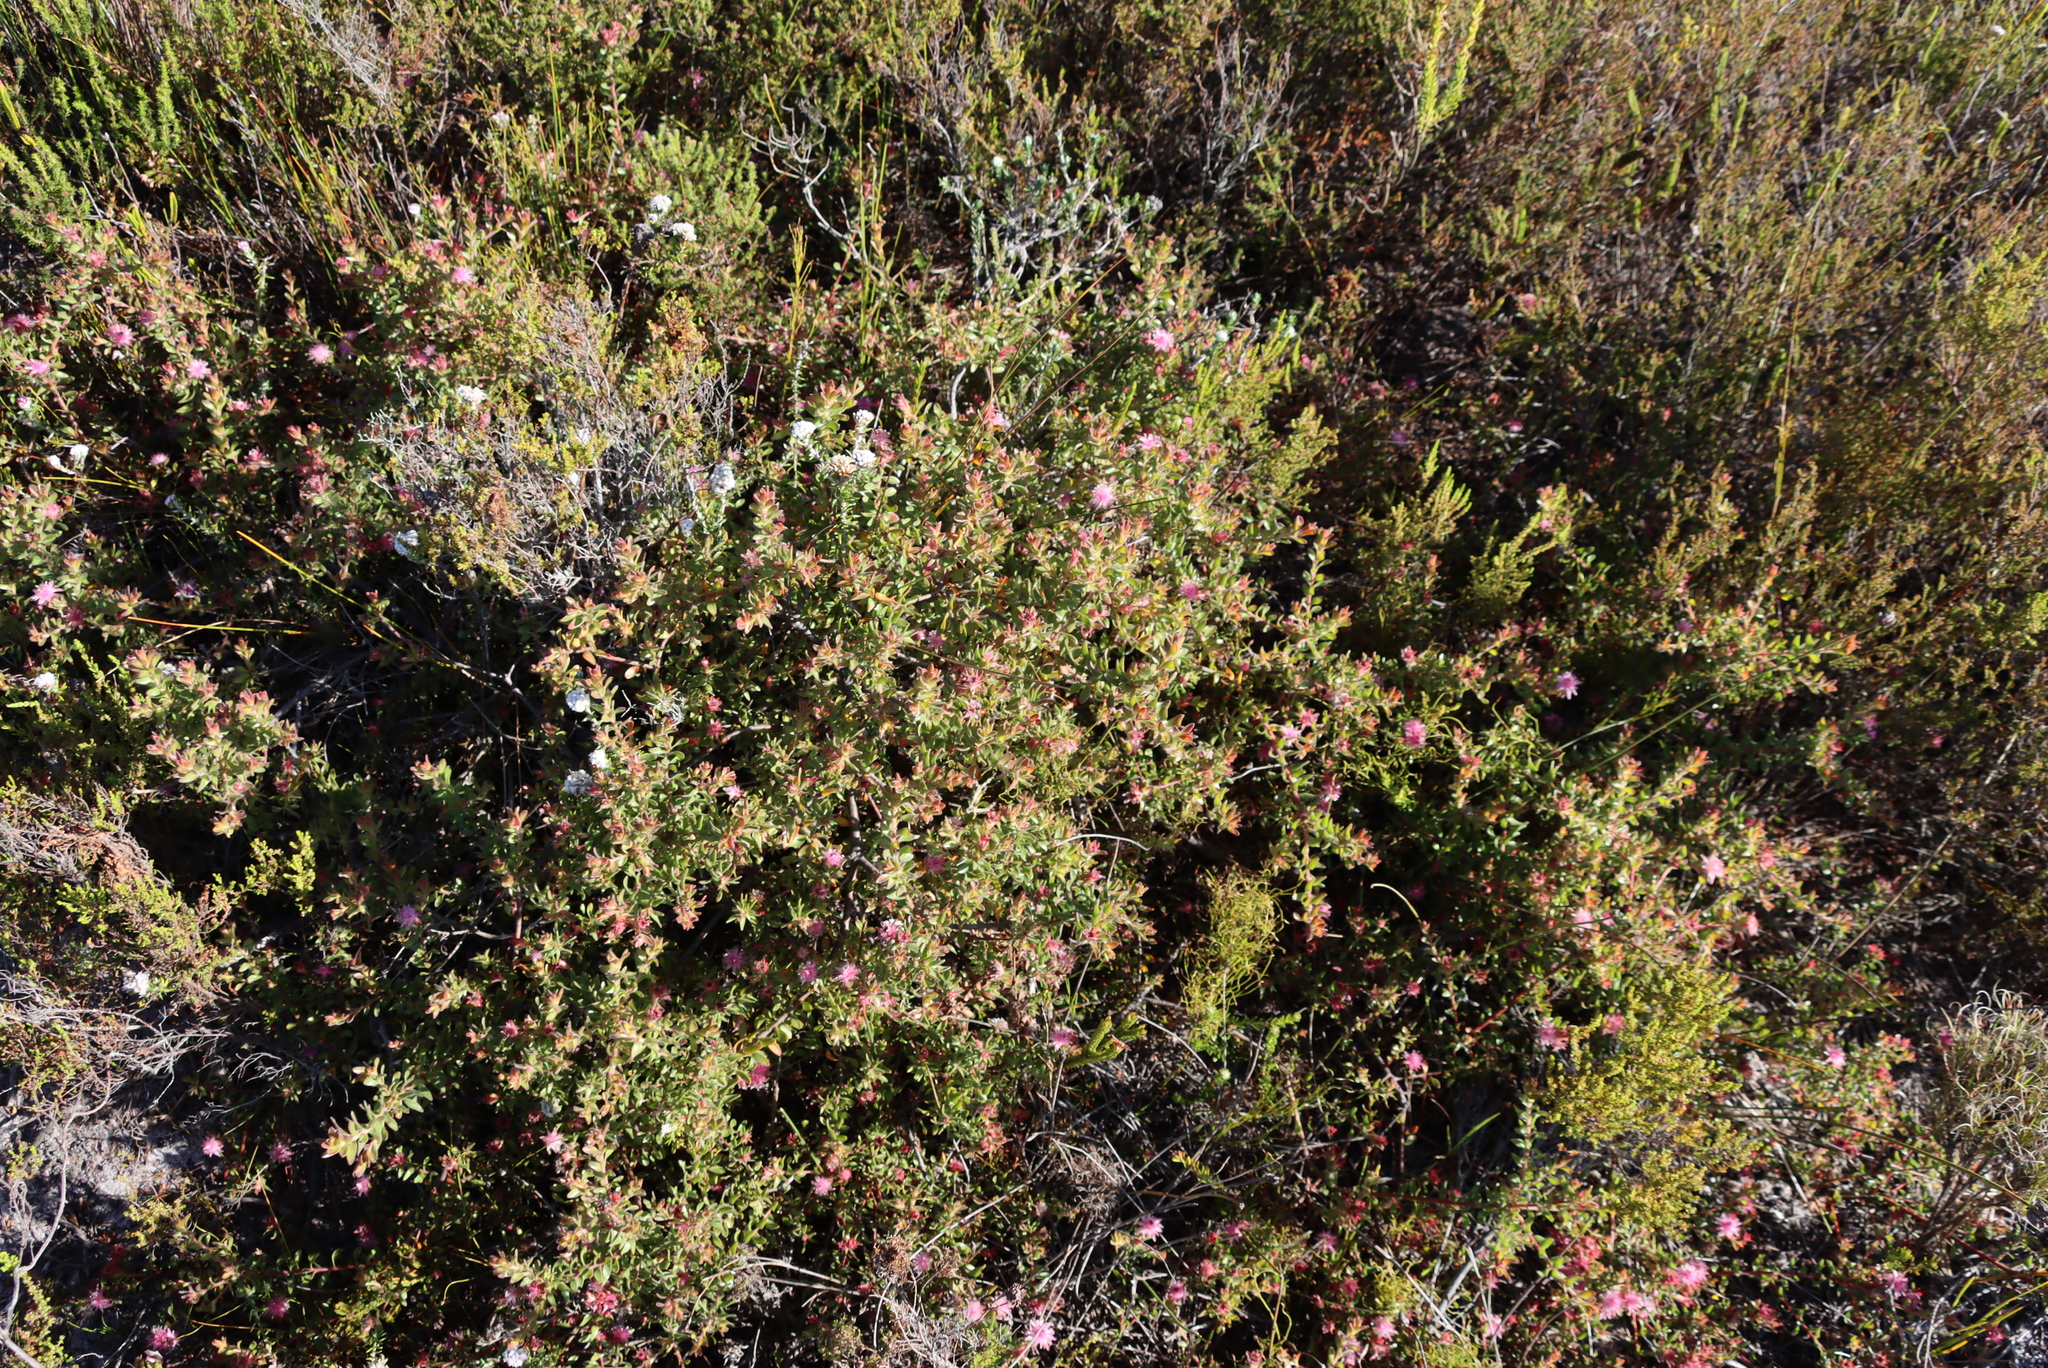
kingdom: Plantae
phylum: Tracheophyta
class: Magnoliopsida
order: Proteales
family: Proteaceae
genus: Diastella
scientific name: Diastella divaricata
